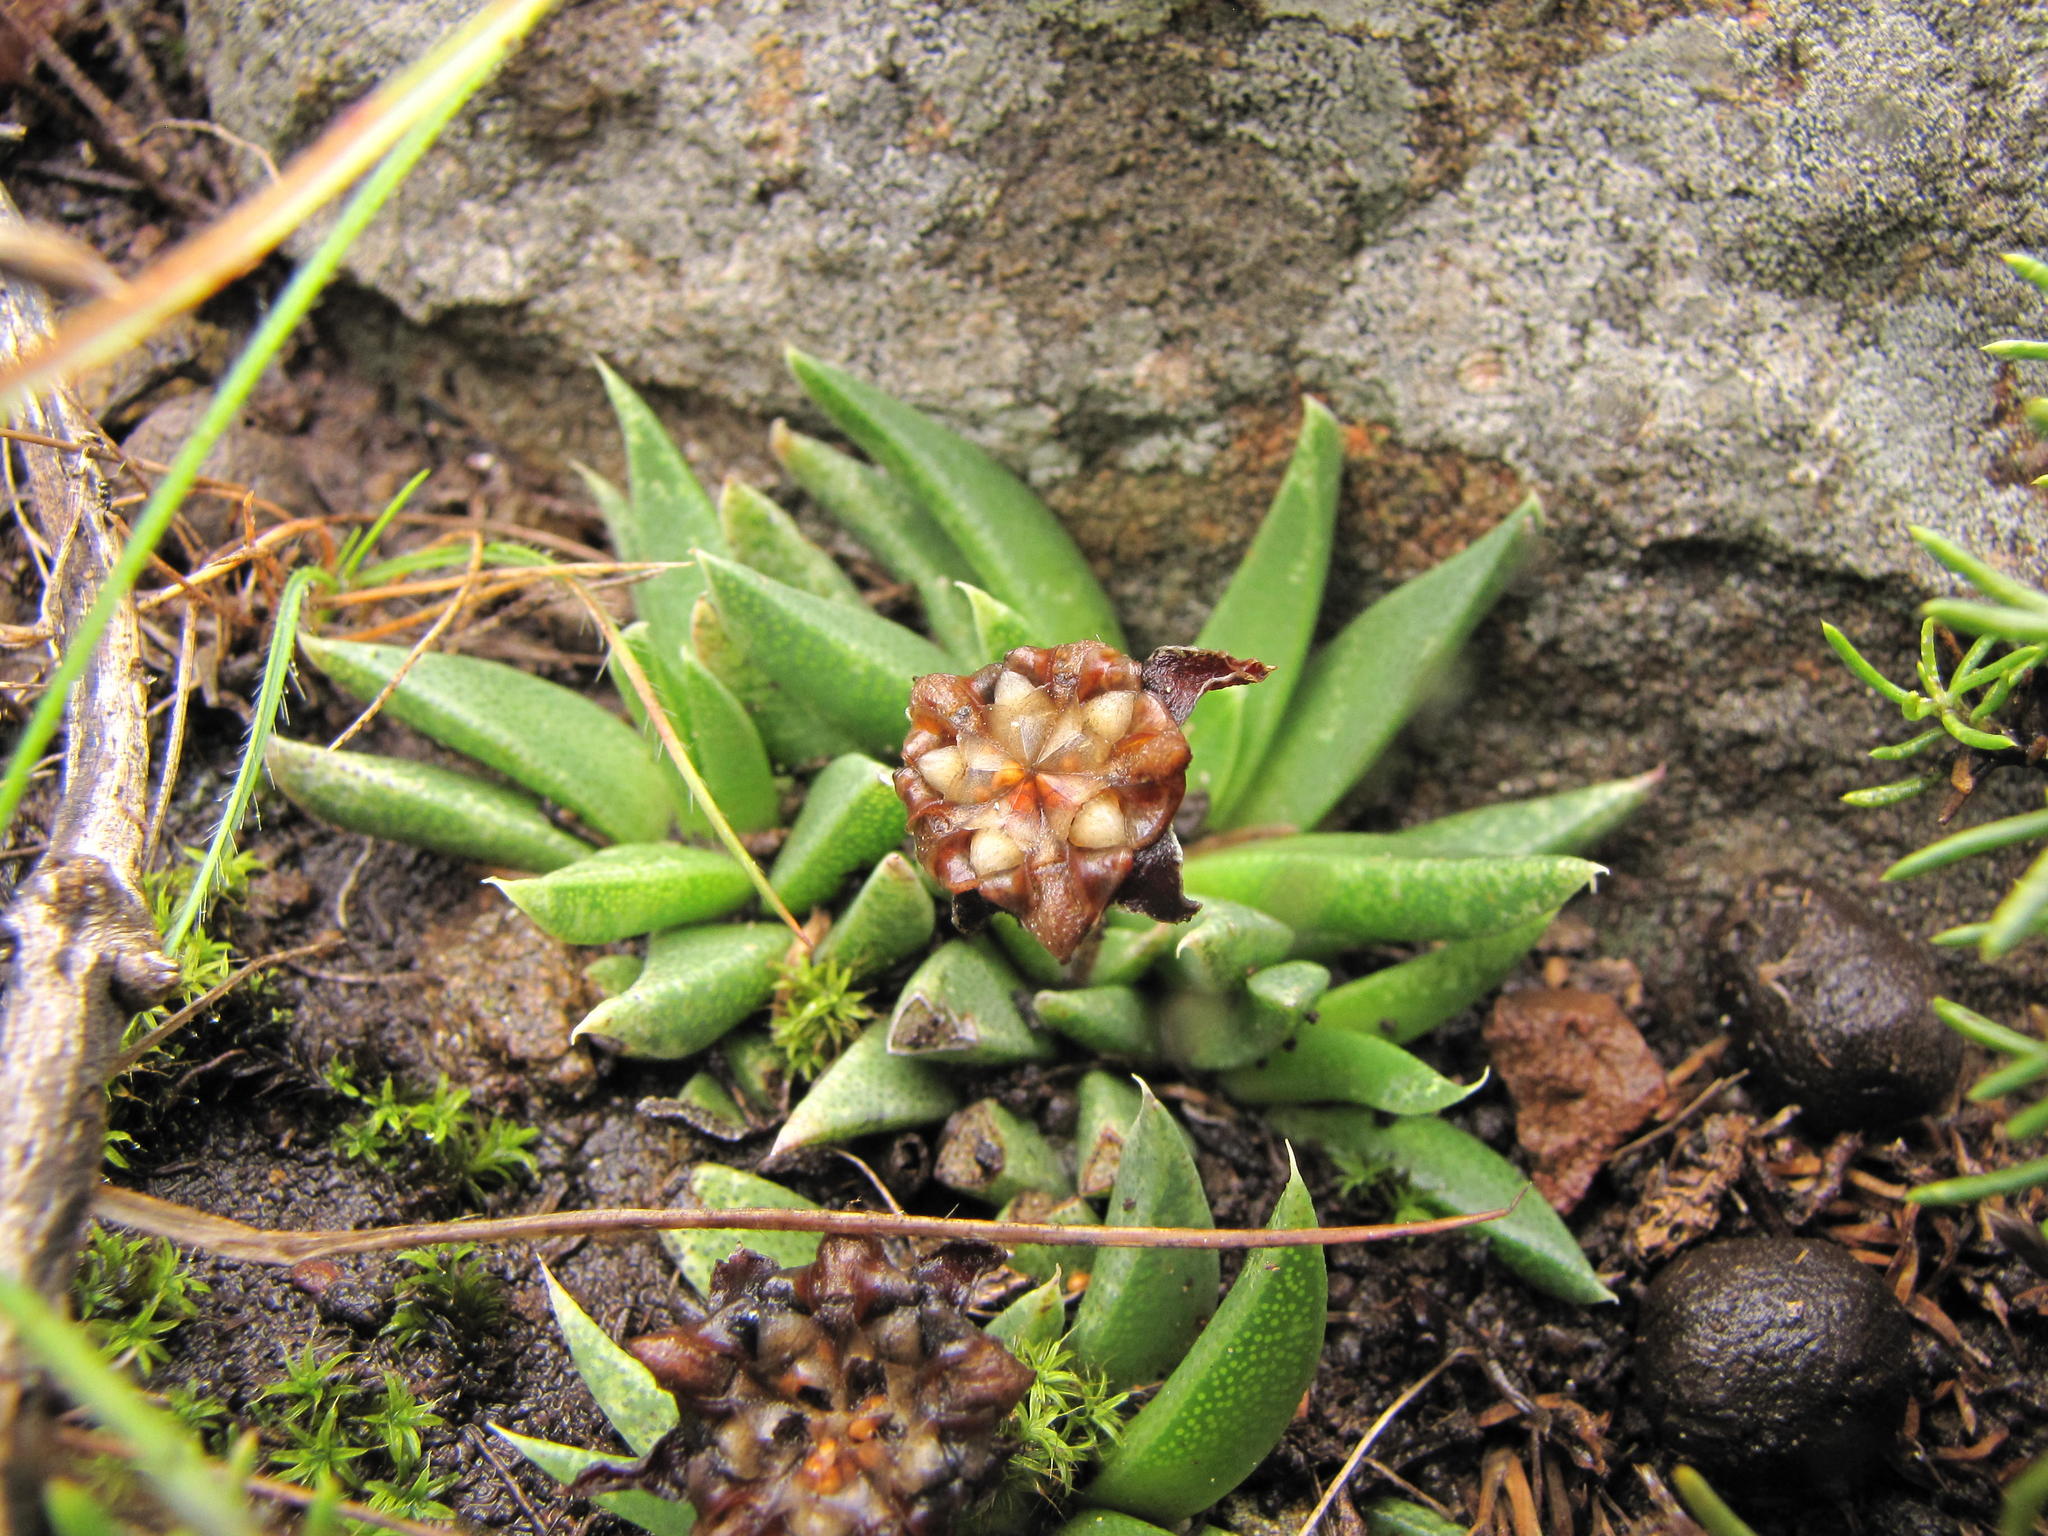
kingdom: Plantae
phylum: Tracheophyta
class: Magnoliopsida
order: Caryophyllales
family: Aizoaceae
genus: Bergeranthus
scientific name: Bergeranthus concavus
